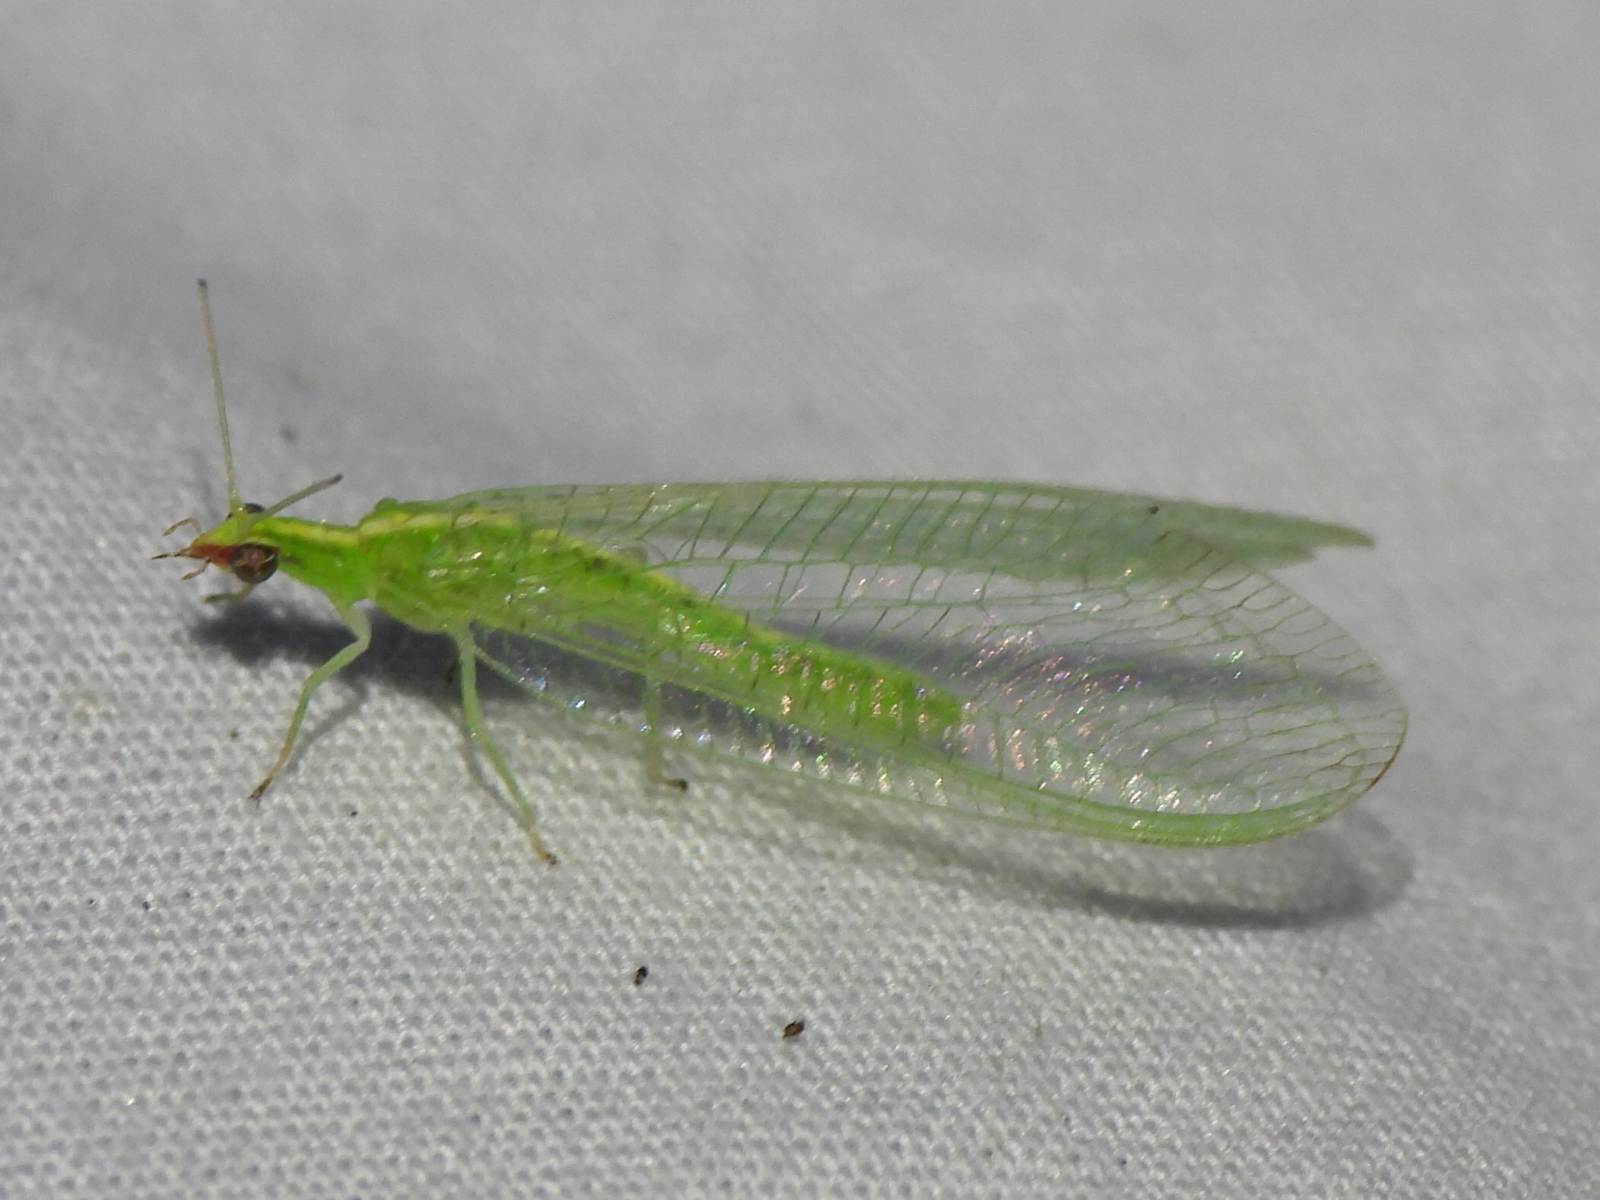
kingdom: Animalia
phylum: Arthropoda
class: Insecta
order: Neuroptera
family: Chrysopidae
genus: Chrysoperla
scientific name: Chrysoperla rufilabris
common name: Red-lipped green lacewing
